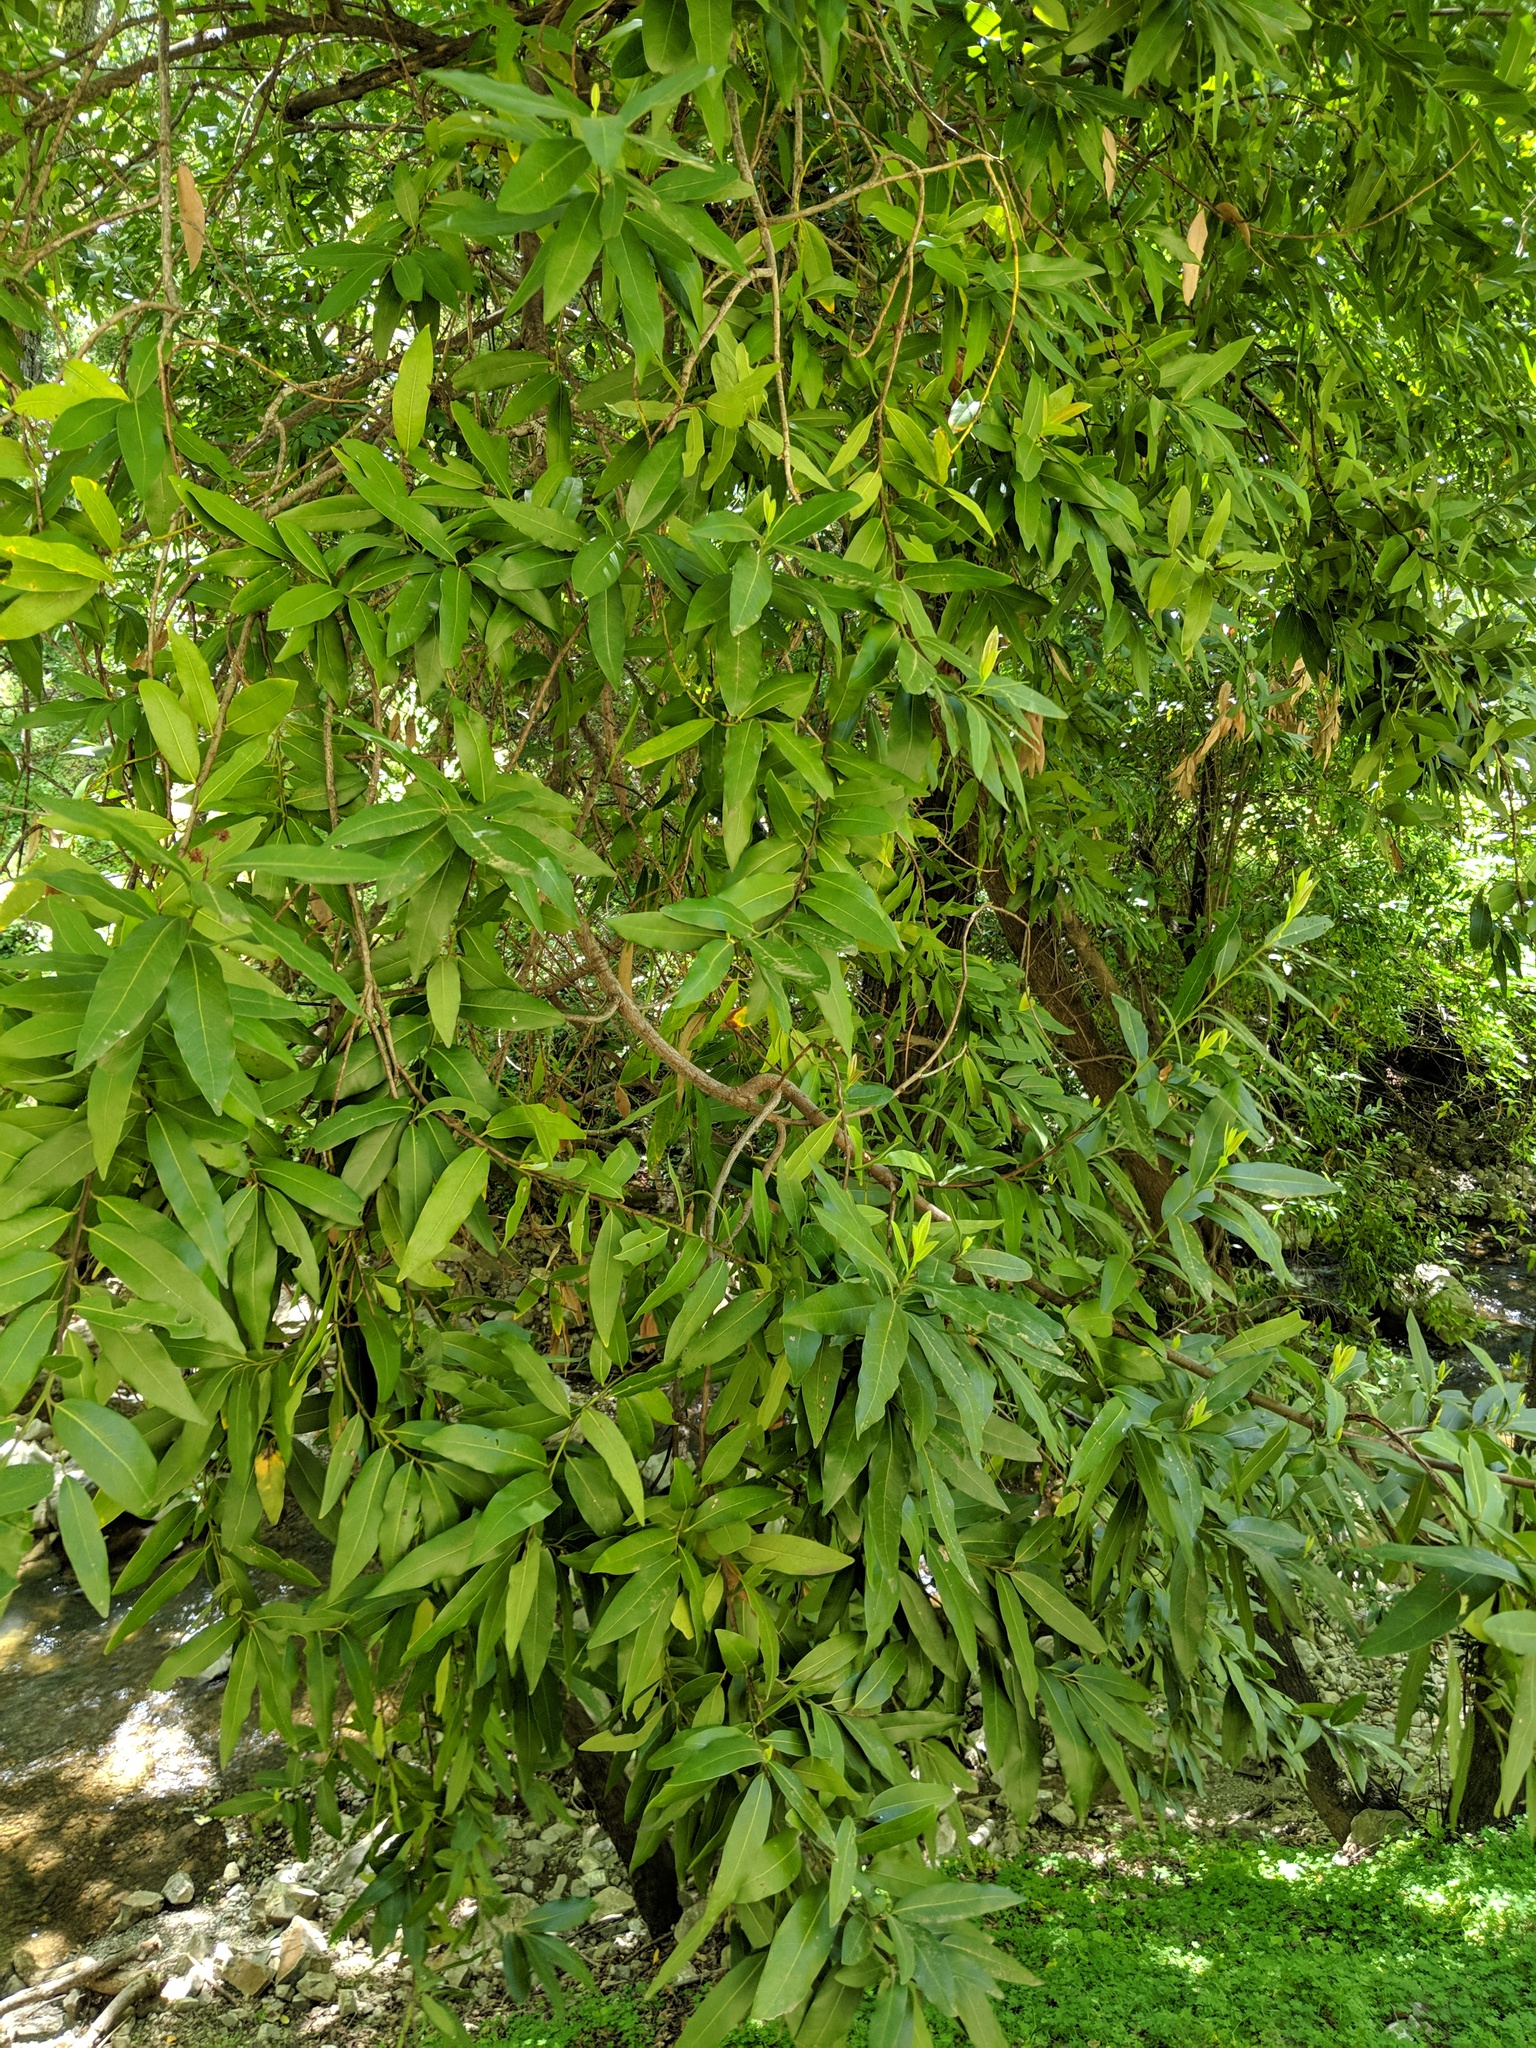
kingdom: Plantae
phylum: Tracheophyta
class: Magnoliopsida
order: Laurales
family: Lauraceae
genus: Umbellularia
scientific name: Umbellularia californica
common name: California bay
